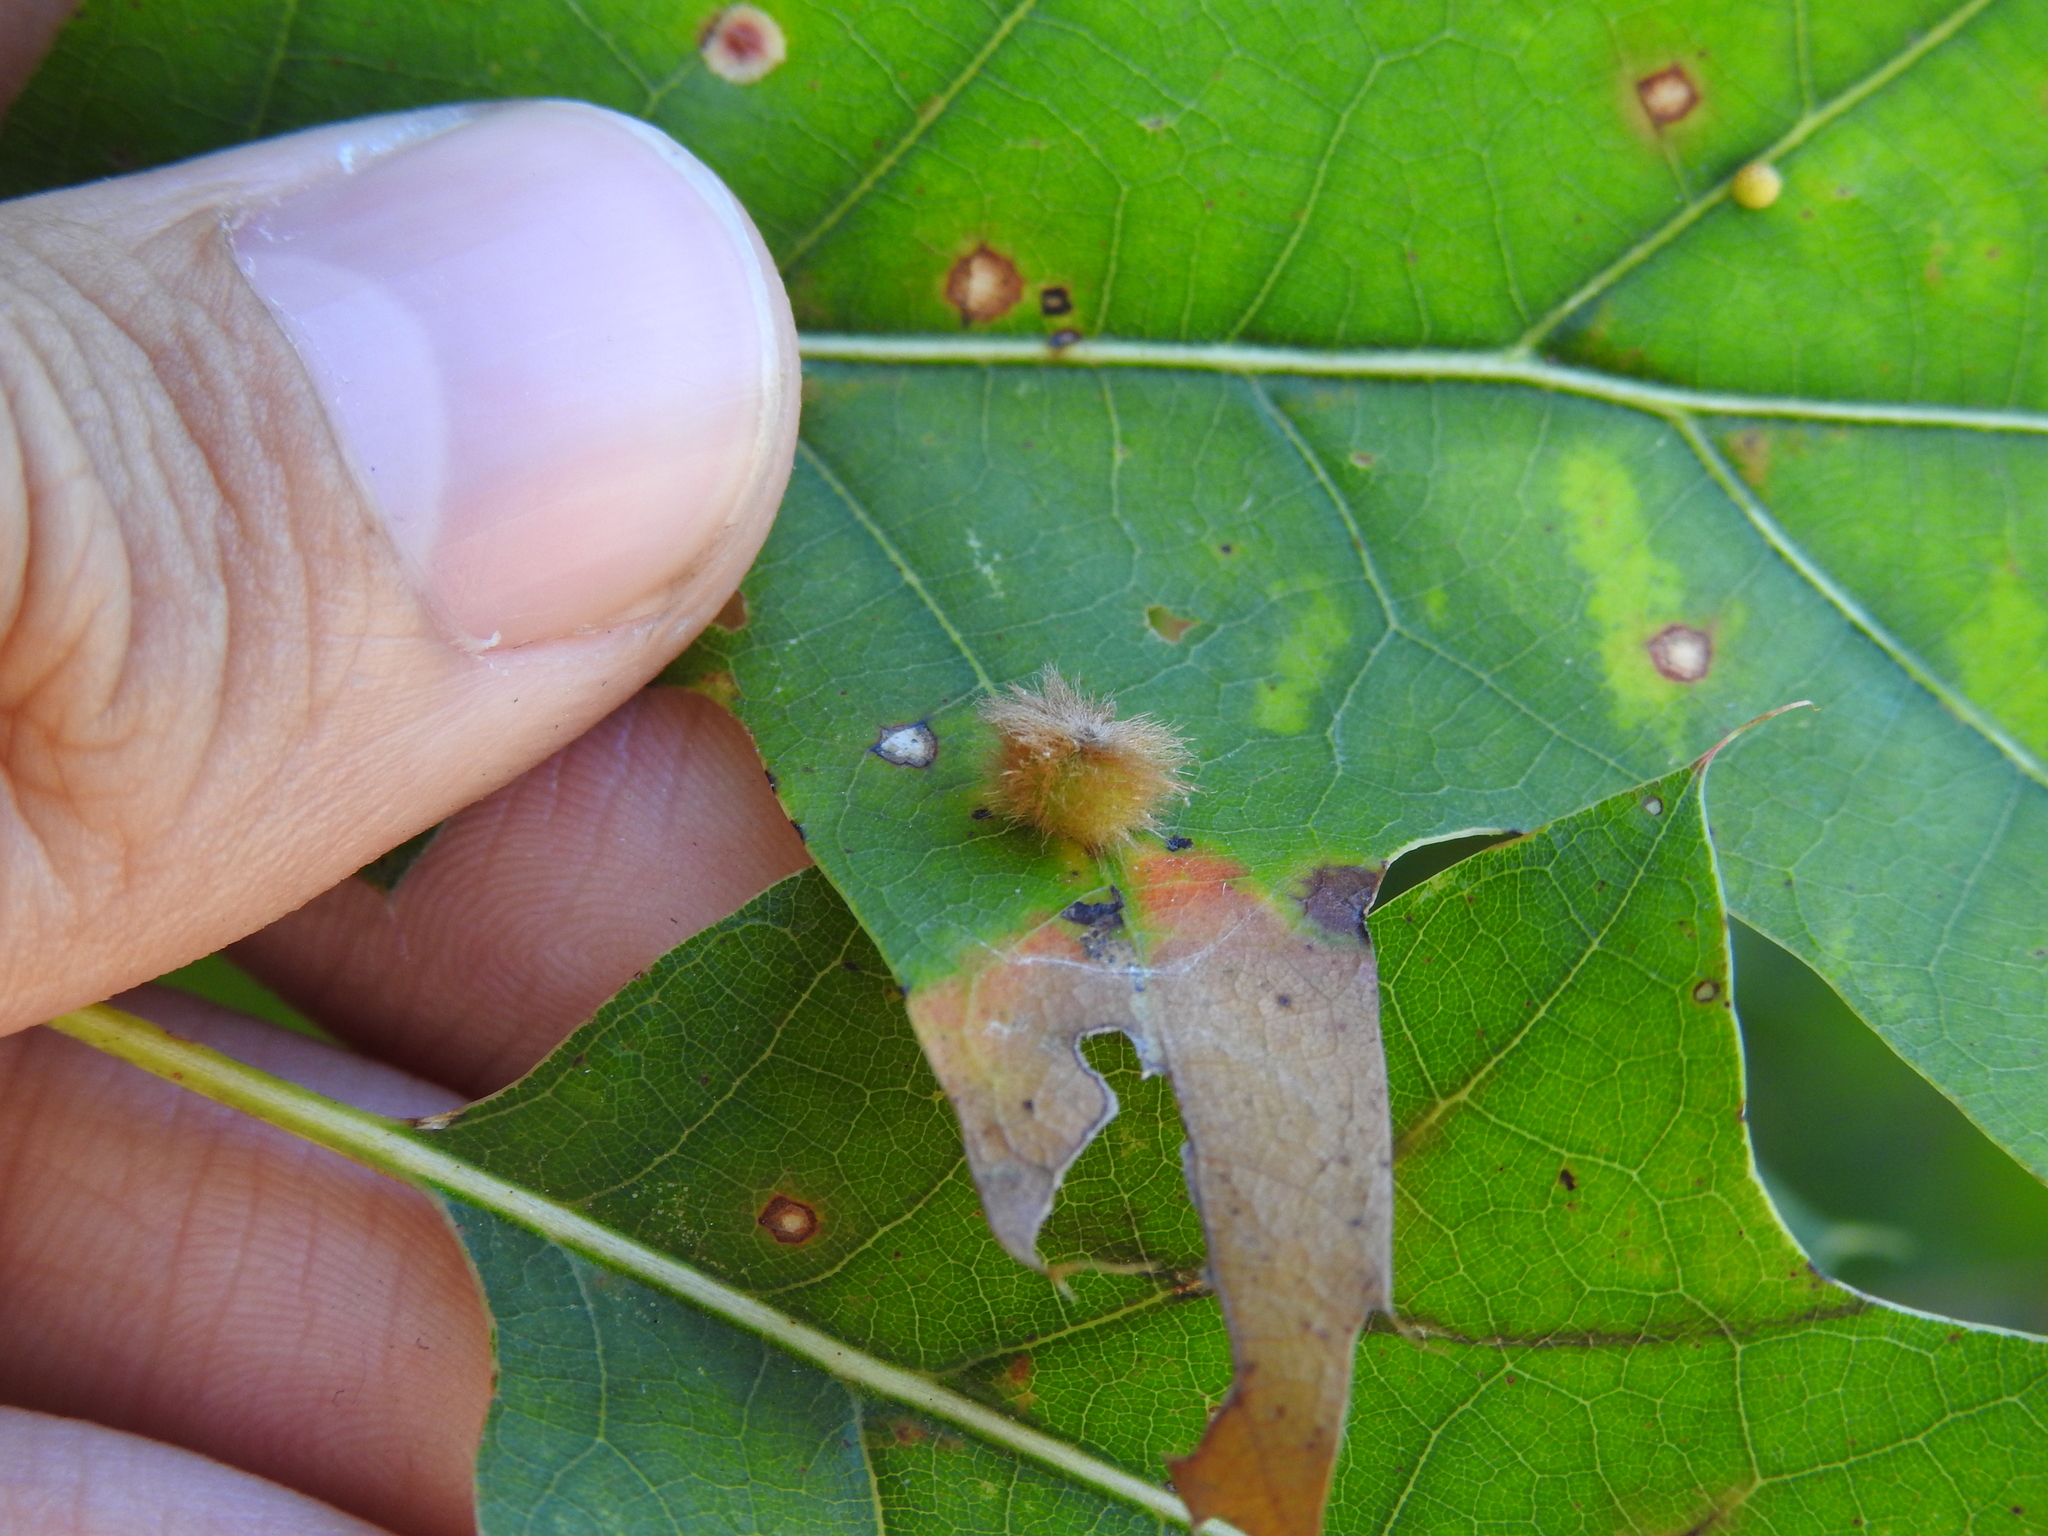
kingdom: Animalia
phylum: Arthropoda
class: Insecta
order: Hymenoptera
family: Cynipidae
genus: Callirhytis
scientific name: Callirhytis
